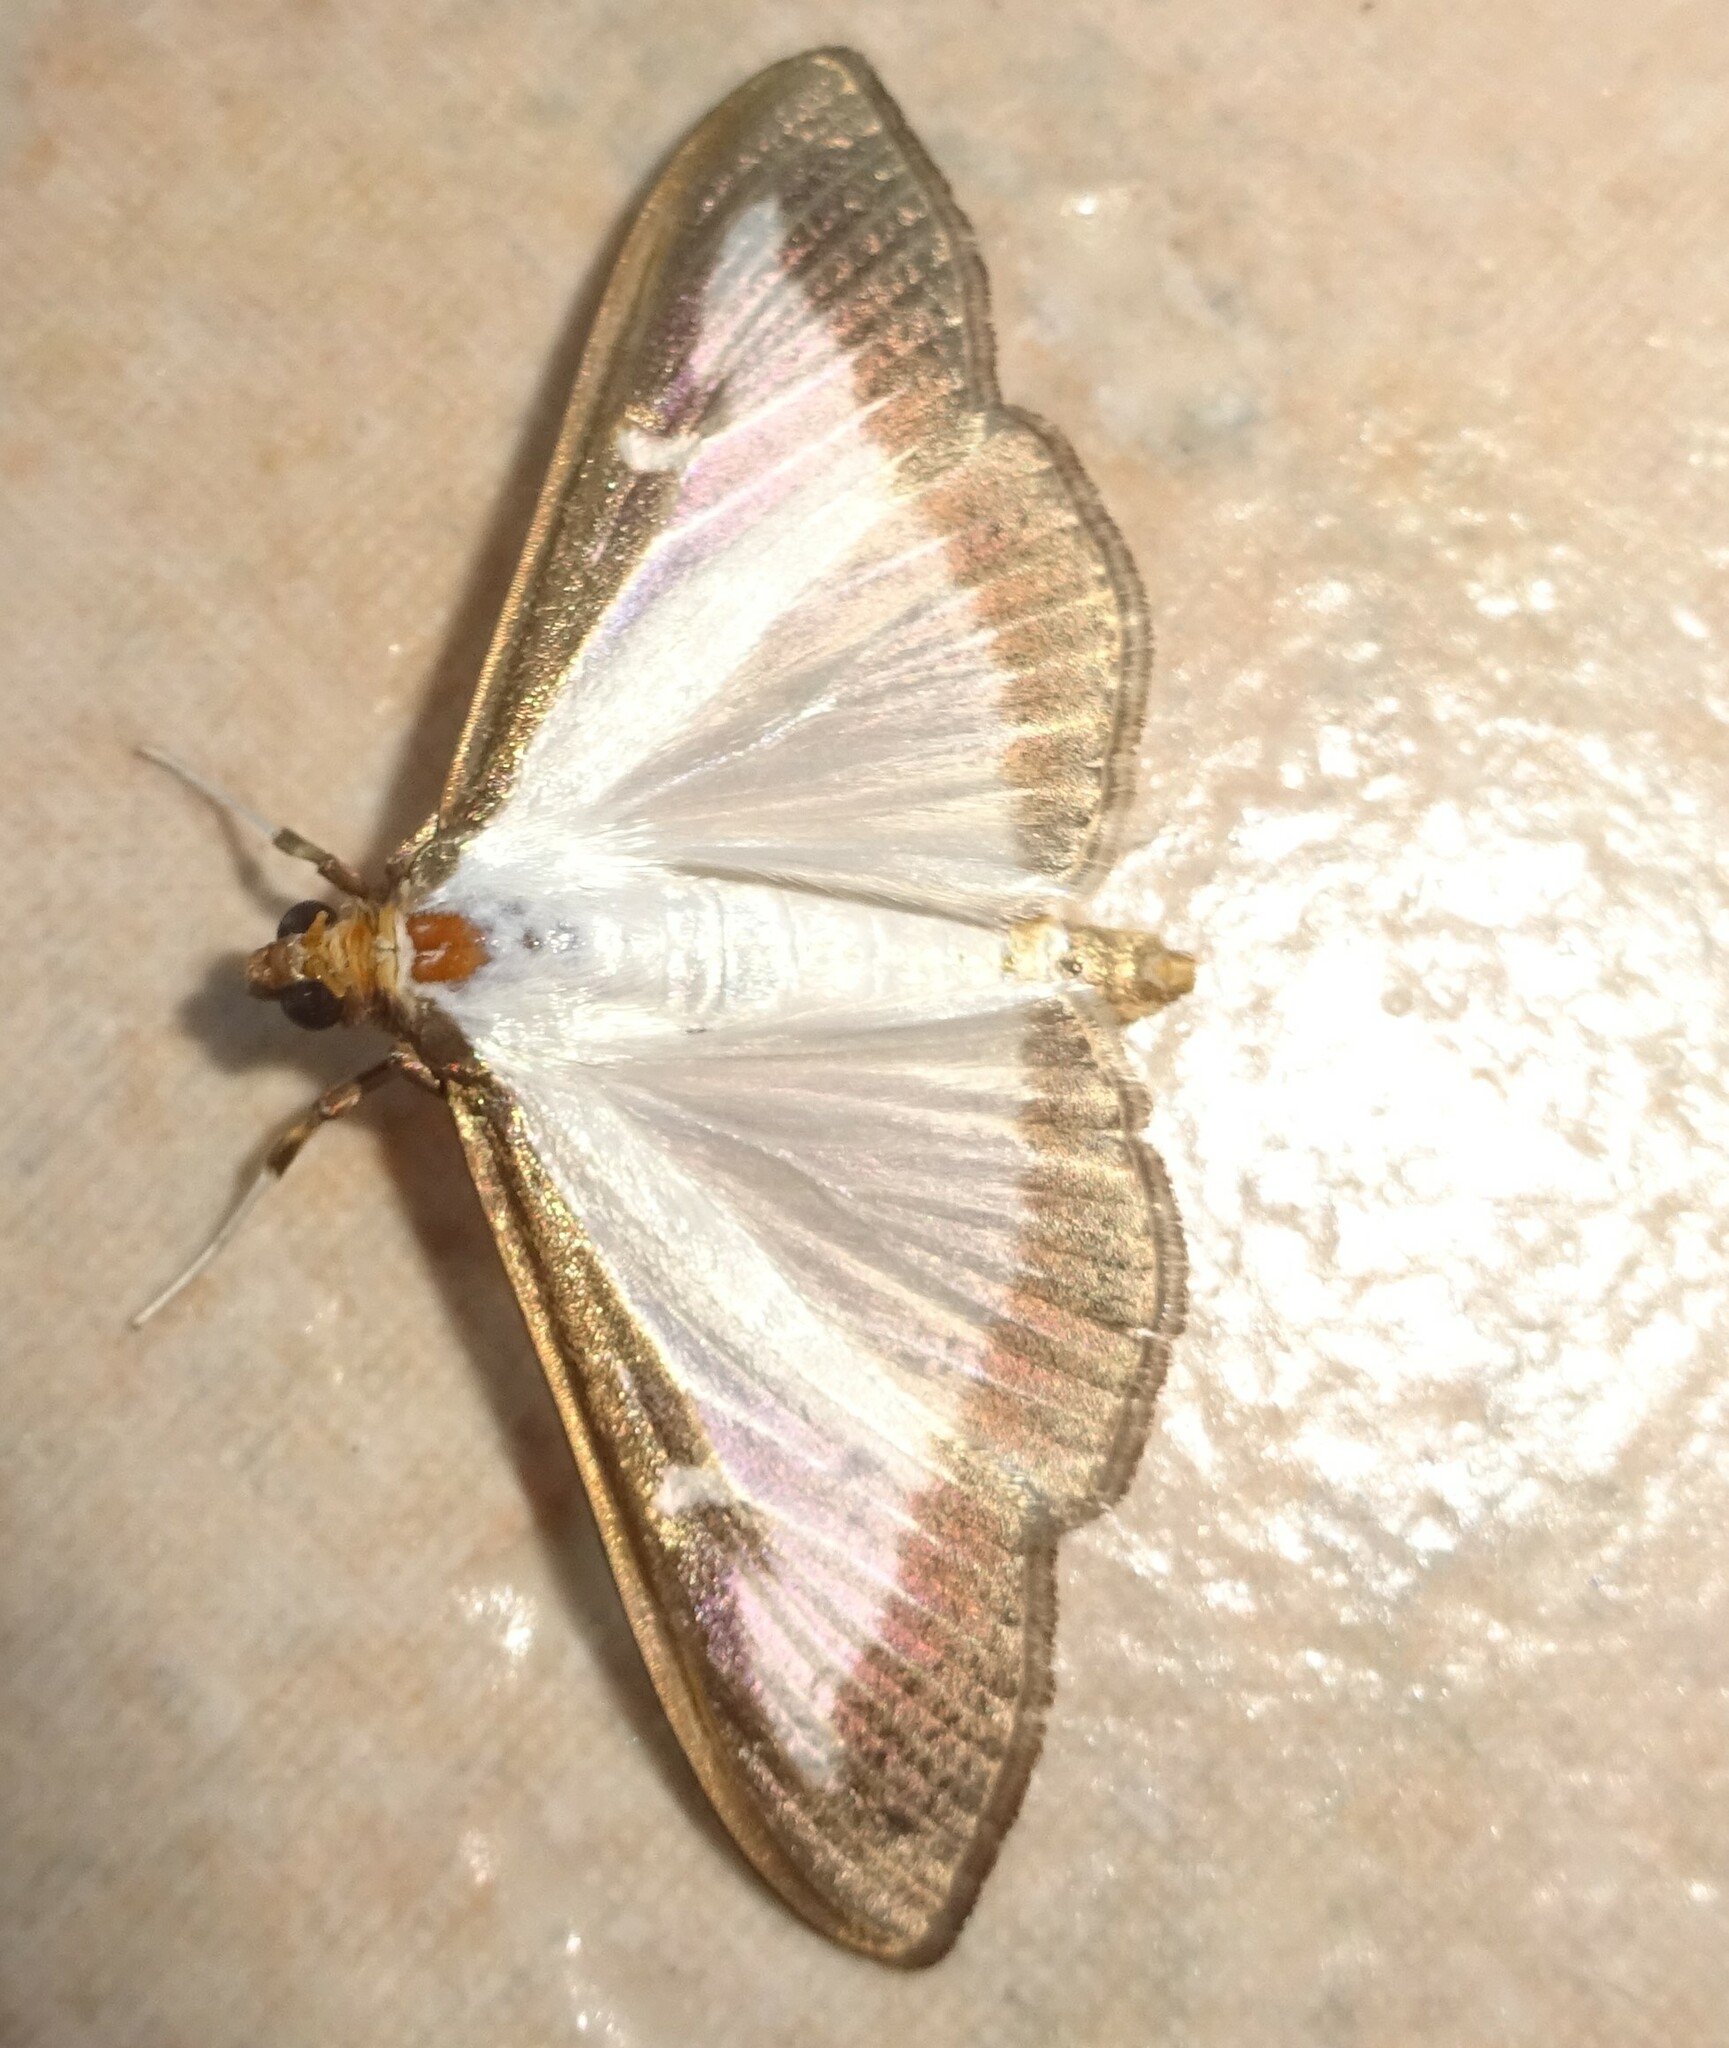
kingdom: Animalia
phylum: Arthropoda
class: Insecta
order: Lepidoptera
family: Crambidae
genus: Cydalima
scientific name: Cydalima perspectalis
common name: Box tree moth
